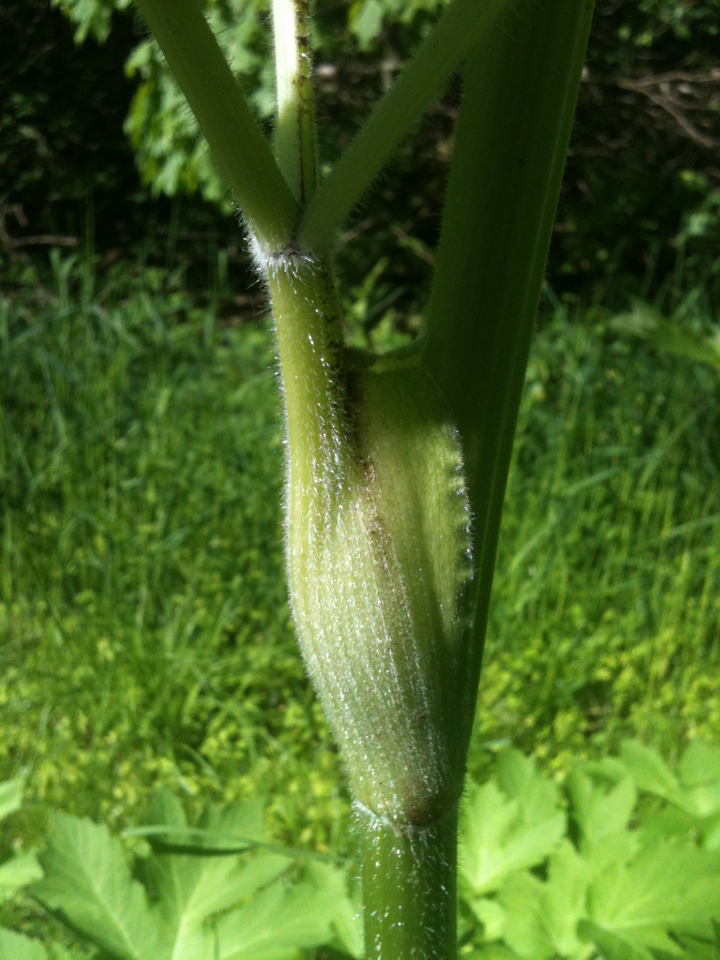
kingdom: Plantae
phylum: Tracheophyta
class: Magnoliopsida
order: Apiales
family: Apiaceae
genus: Heracleum
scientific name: Heracleum maximum
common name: American cow parsnip
